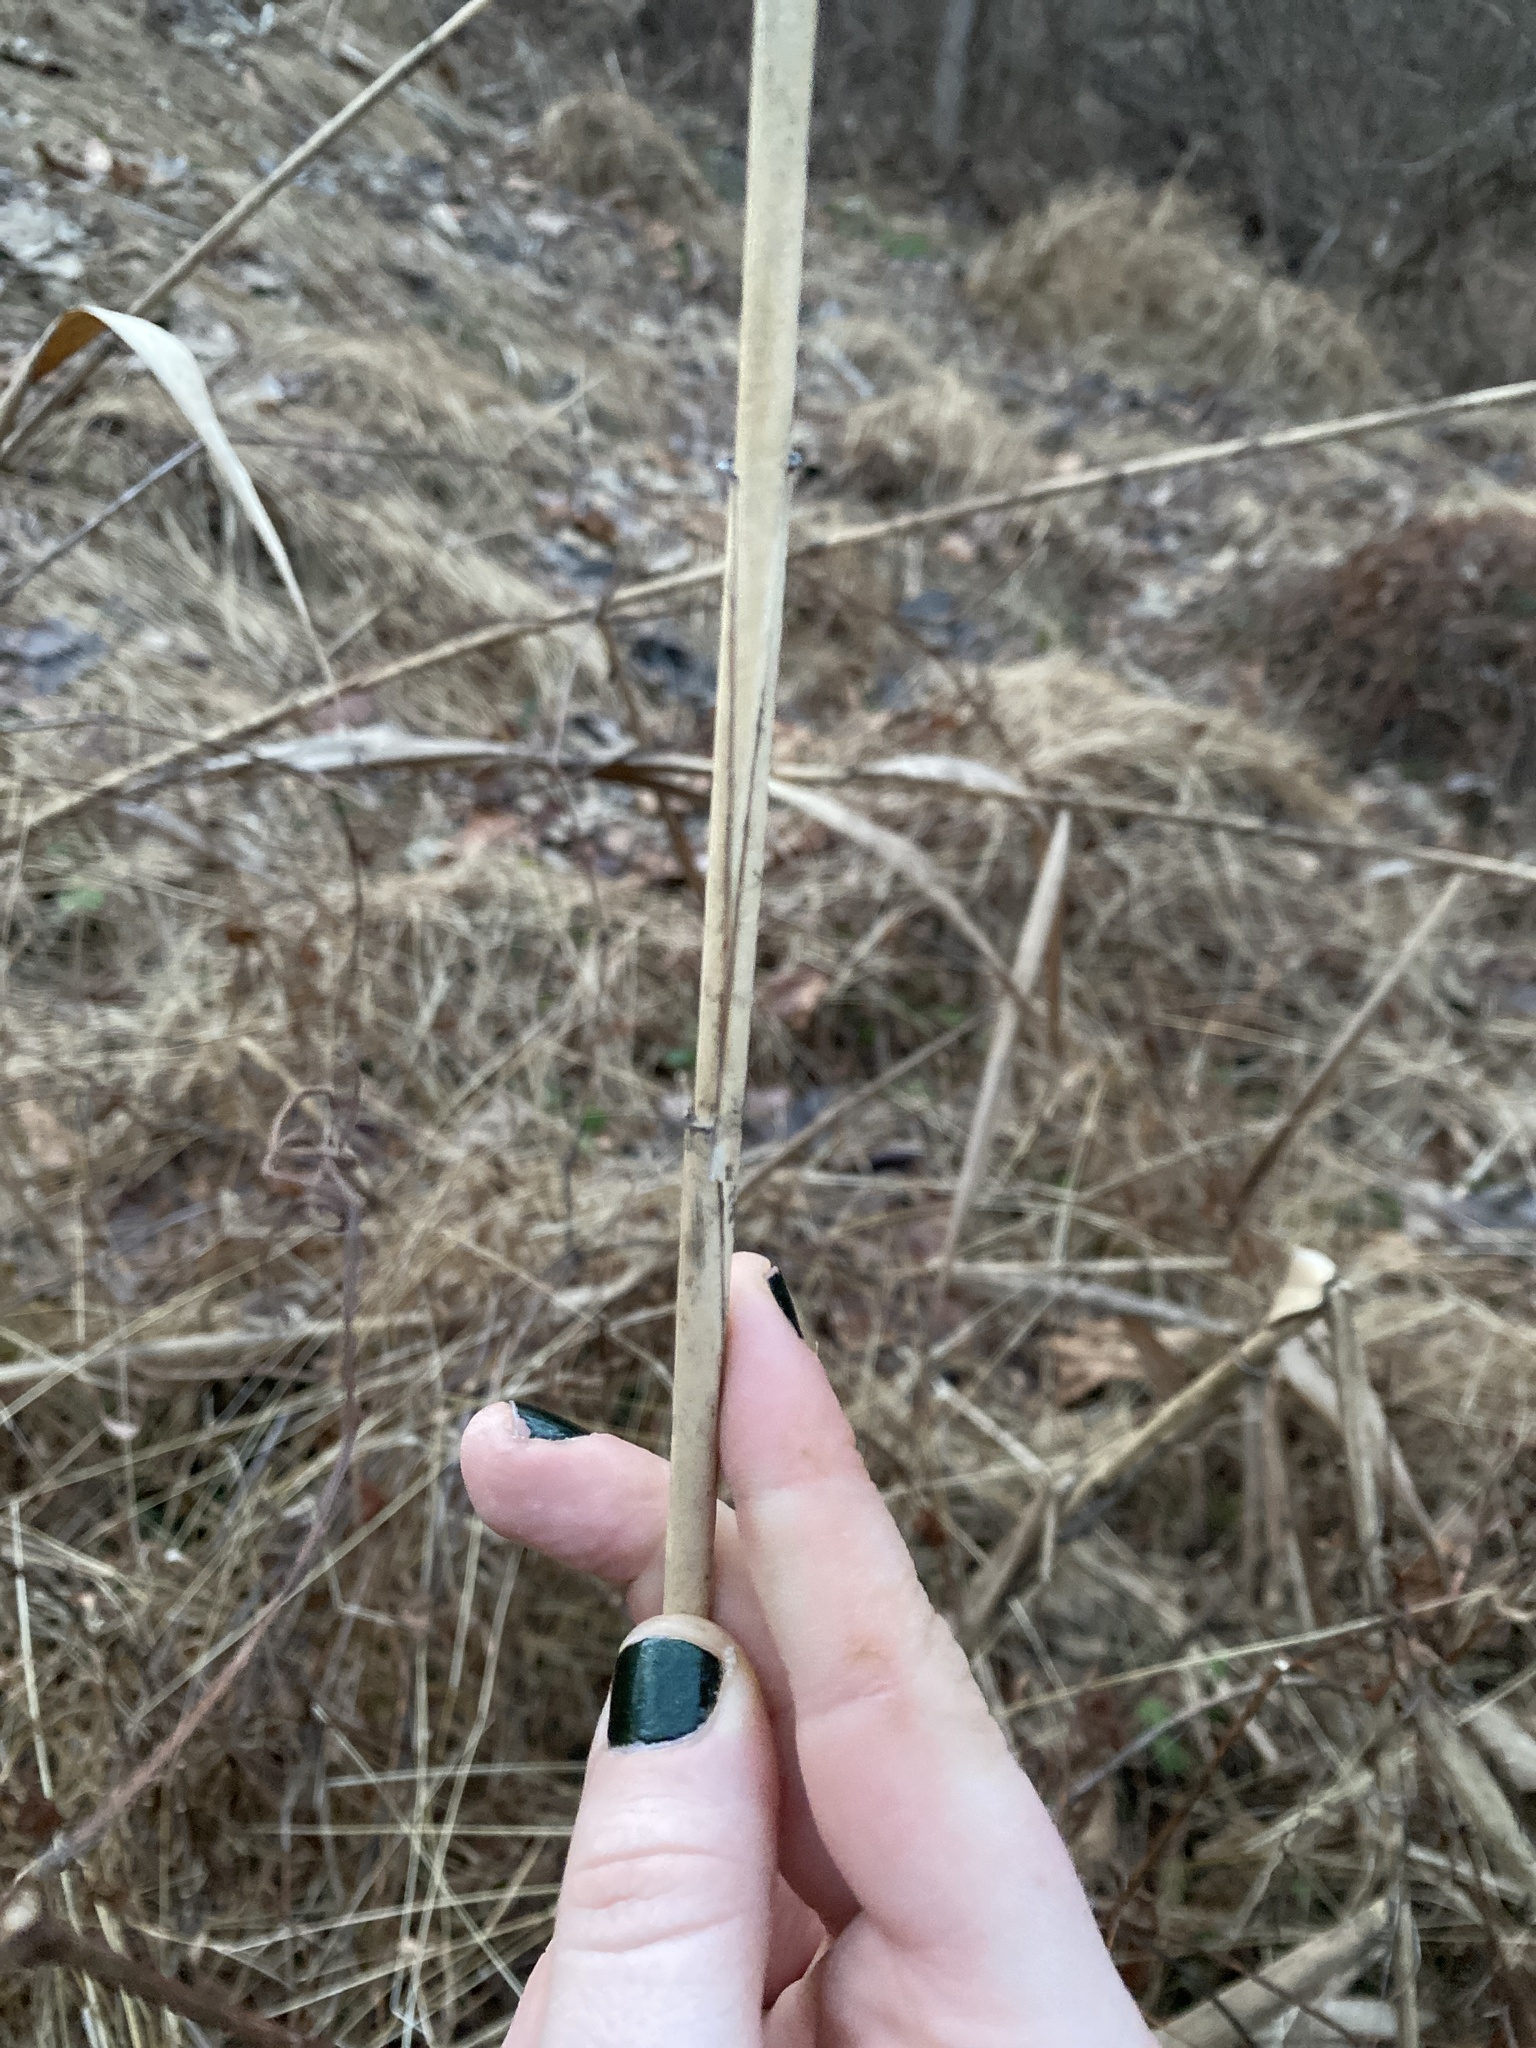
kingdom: Plantae
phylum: Tracheophyta
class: Liliopsida
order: Poales
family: Poaceae
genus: Phragmites
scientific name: Phragmites australis
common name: Common reed
